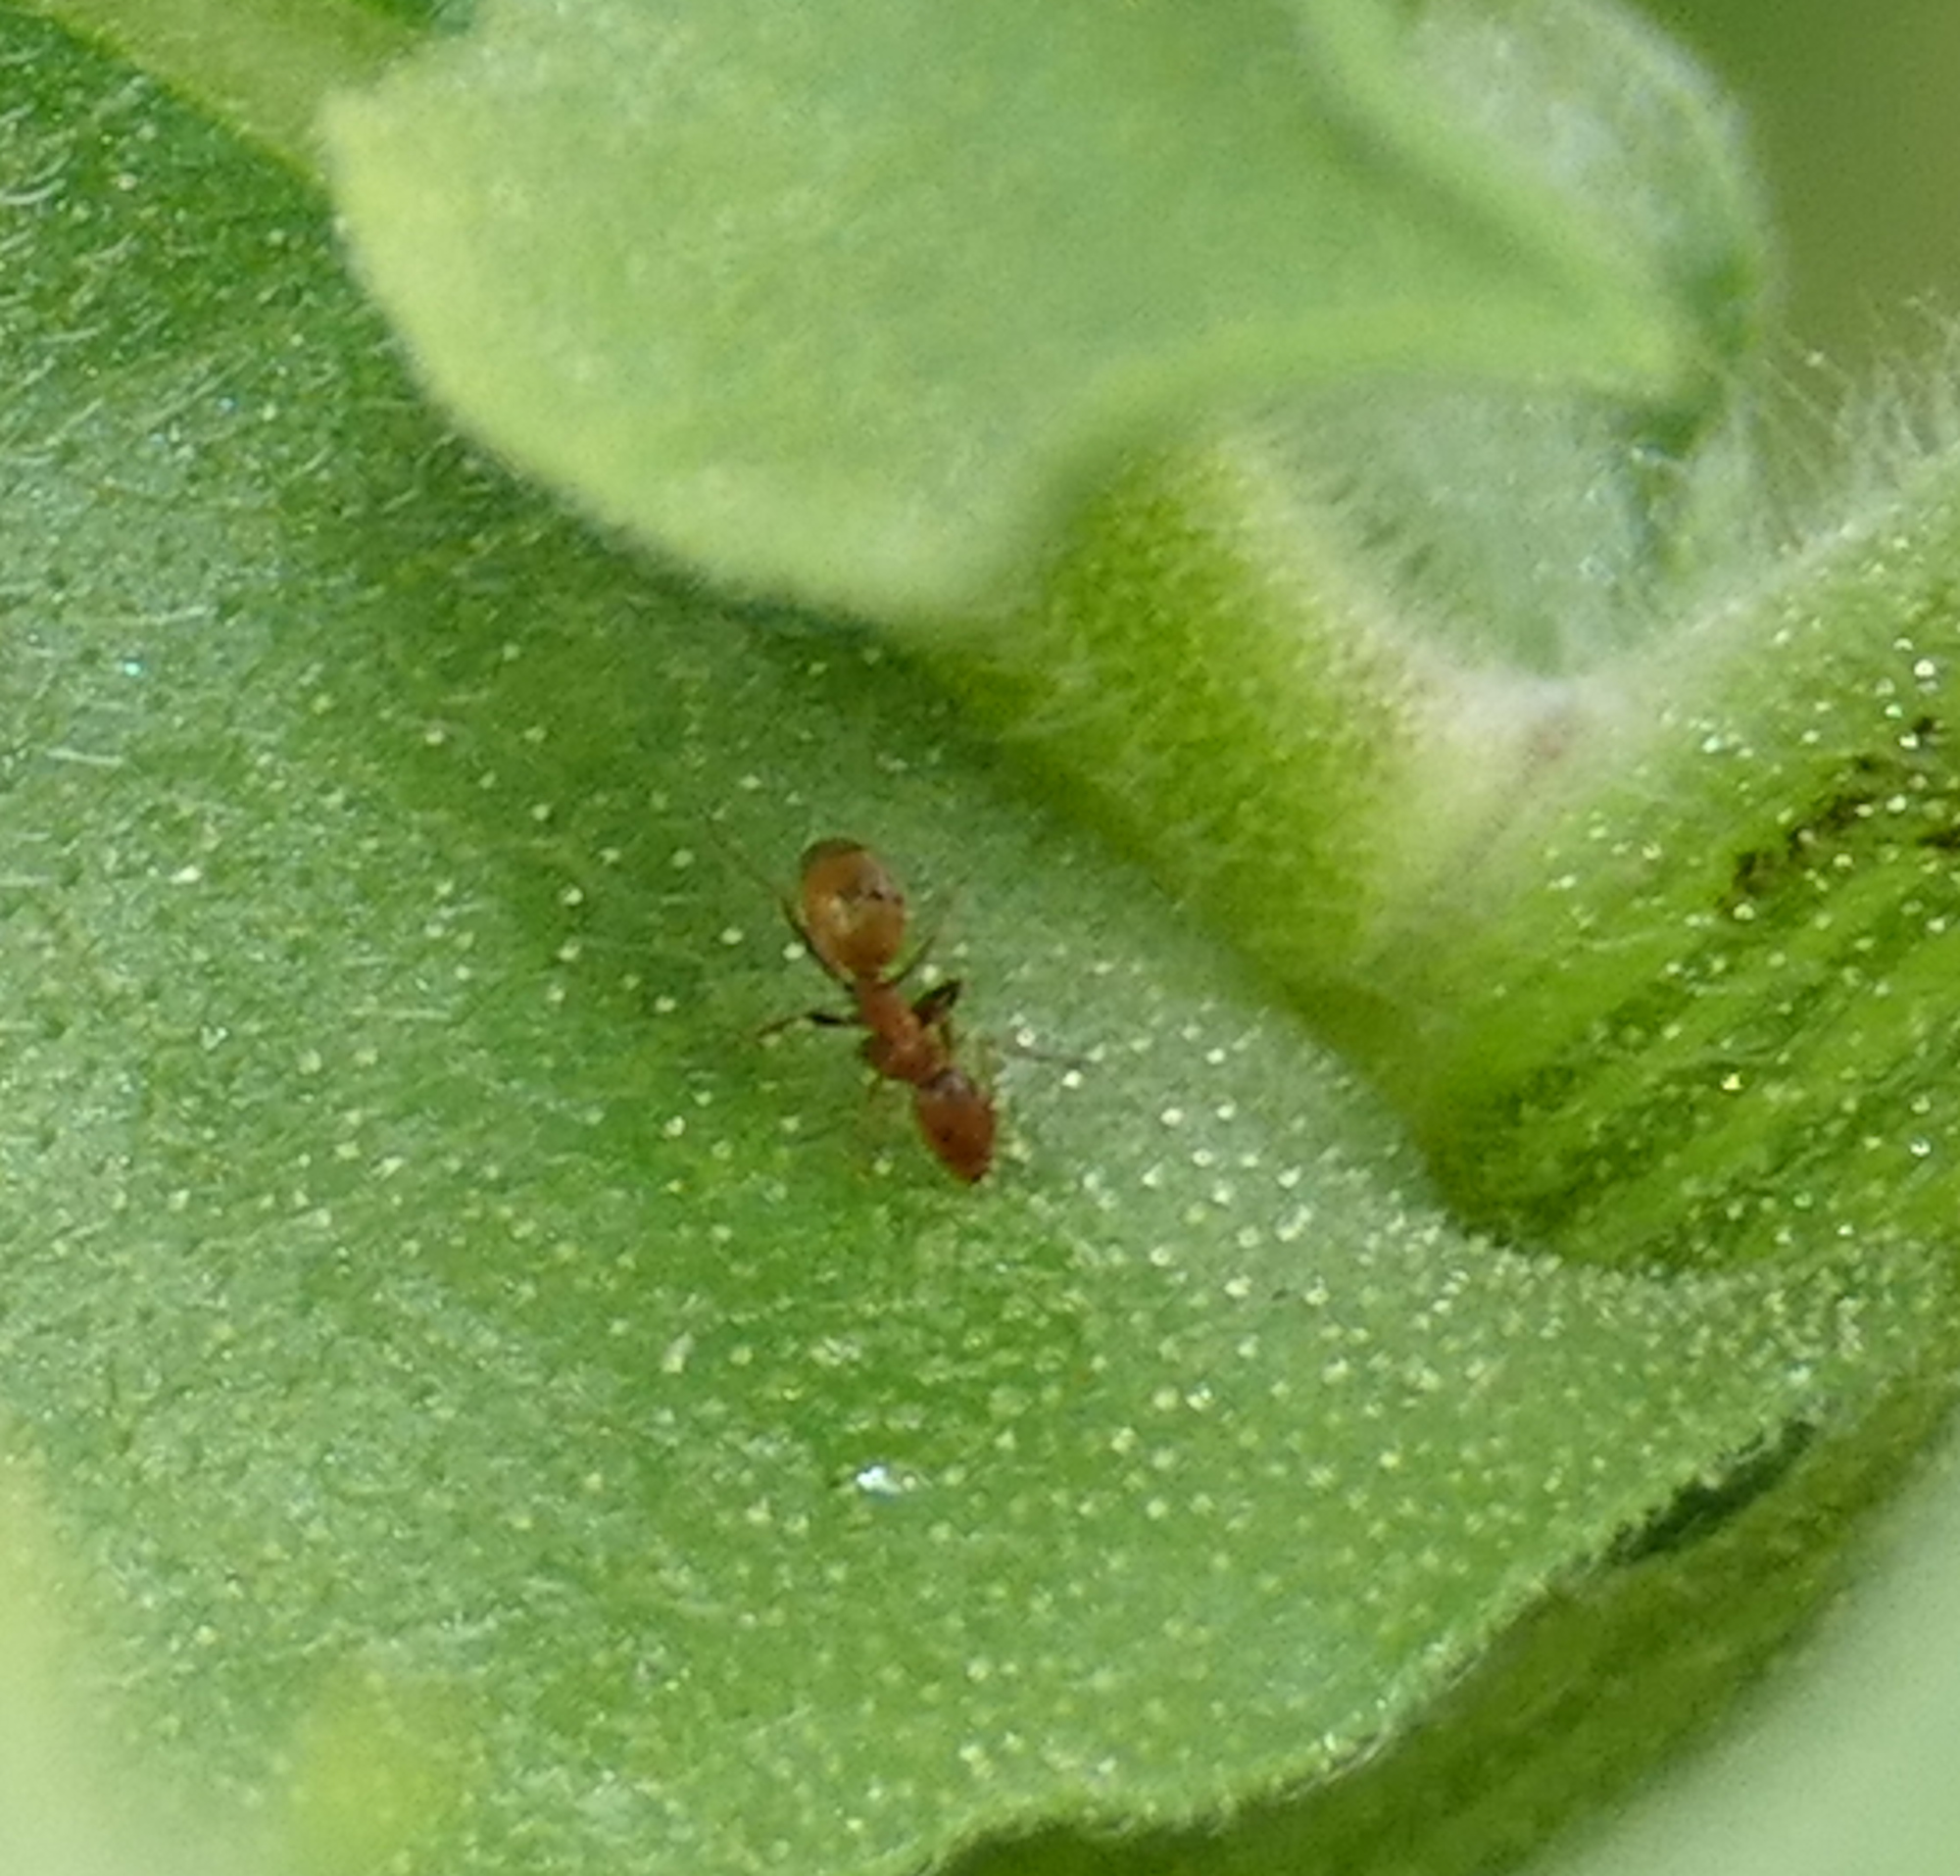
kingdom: Animalia
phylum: Arthropoda
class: Insecta
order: Hymenoptera
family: Formicidae
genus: Forelius
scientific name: Forelius
